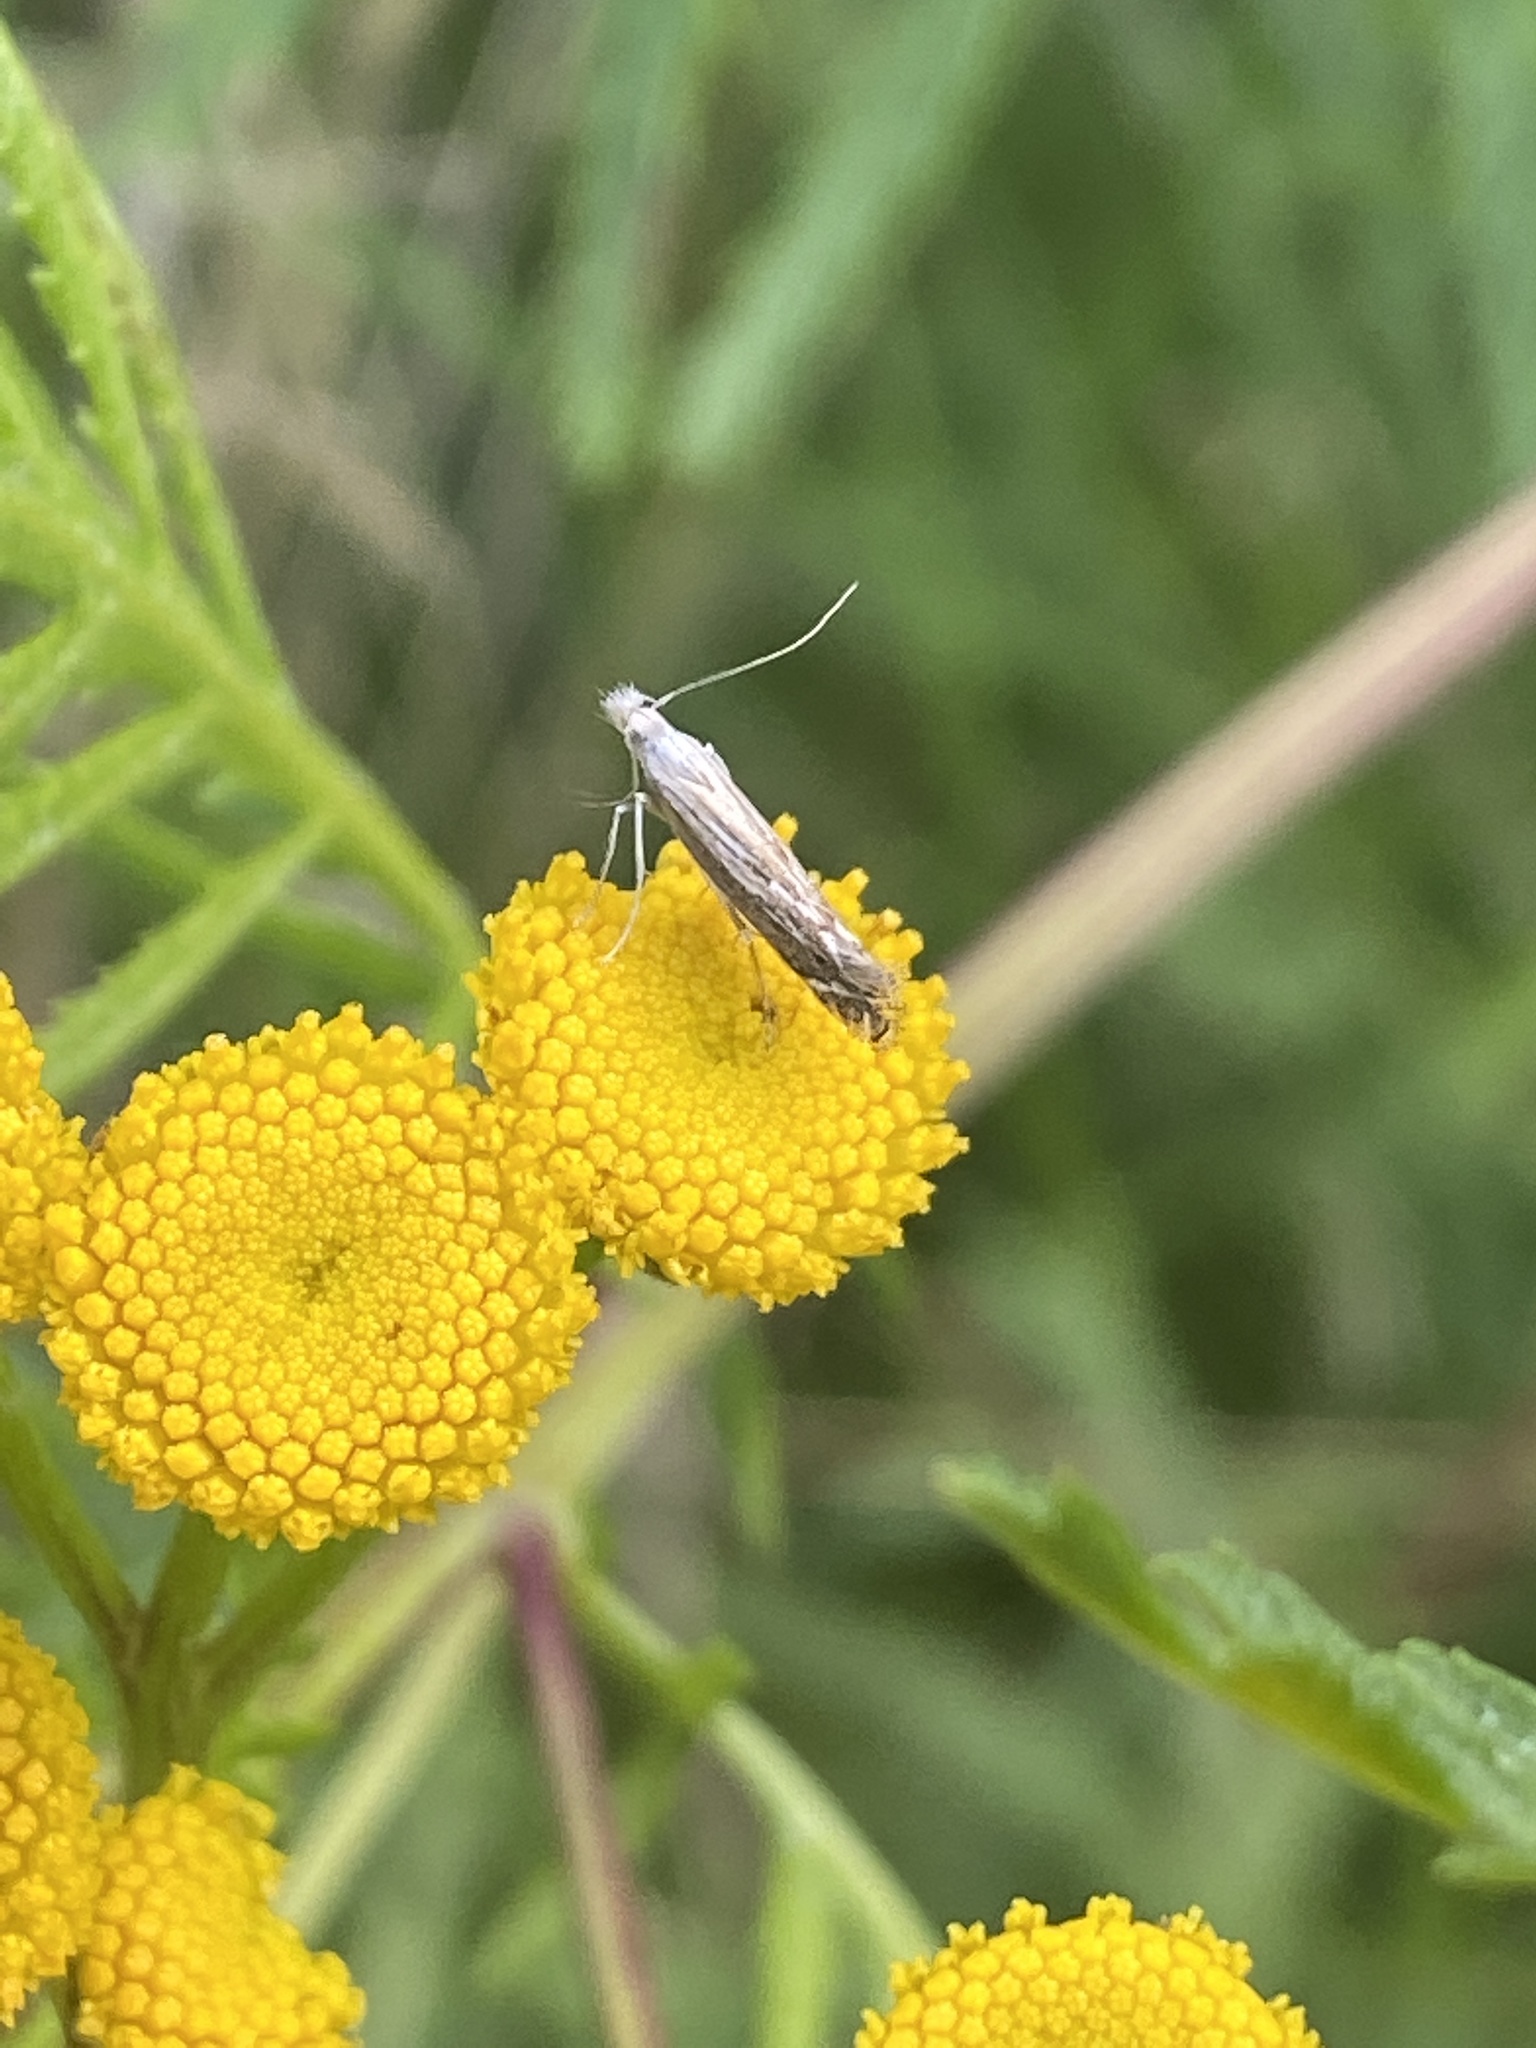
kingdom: Animalia
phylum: Arthropoda
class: Insecta
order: Lepidoptera
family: Gelechiidae
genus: Isophrictis
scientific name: Isophrictis striatella
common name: White-border neb
